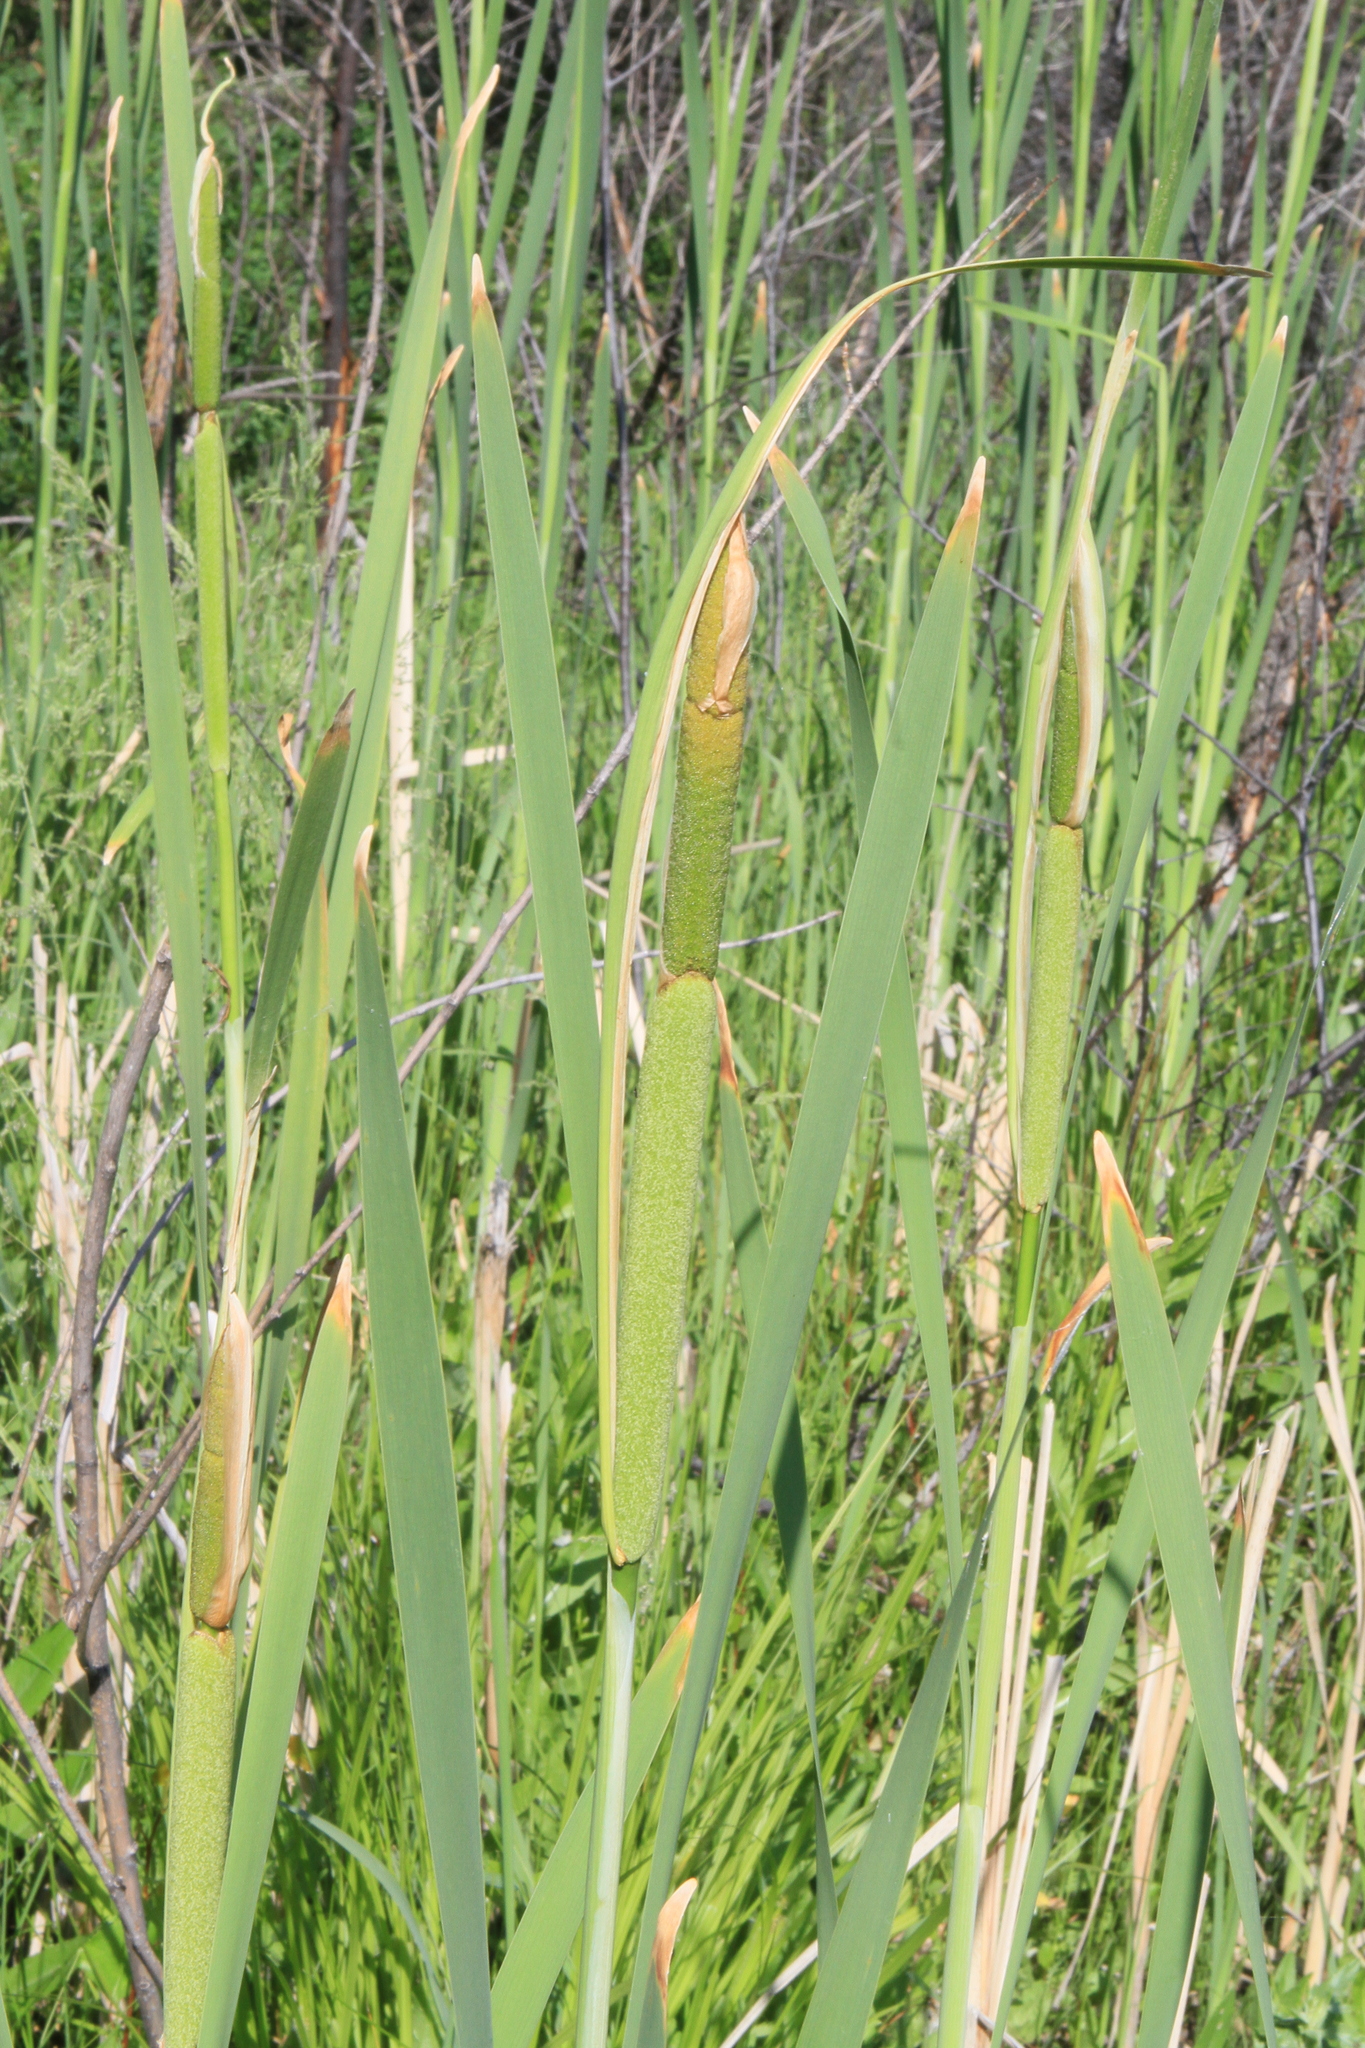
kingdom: Plantae
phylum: Tracheophyta
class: Liliopsida
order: Poales
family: Typhaceae
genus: Typha
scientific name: Typha latifolia
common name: Broadleaf cattail
